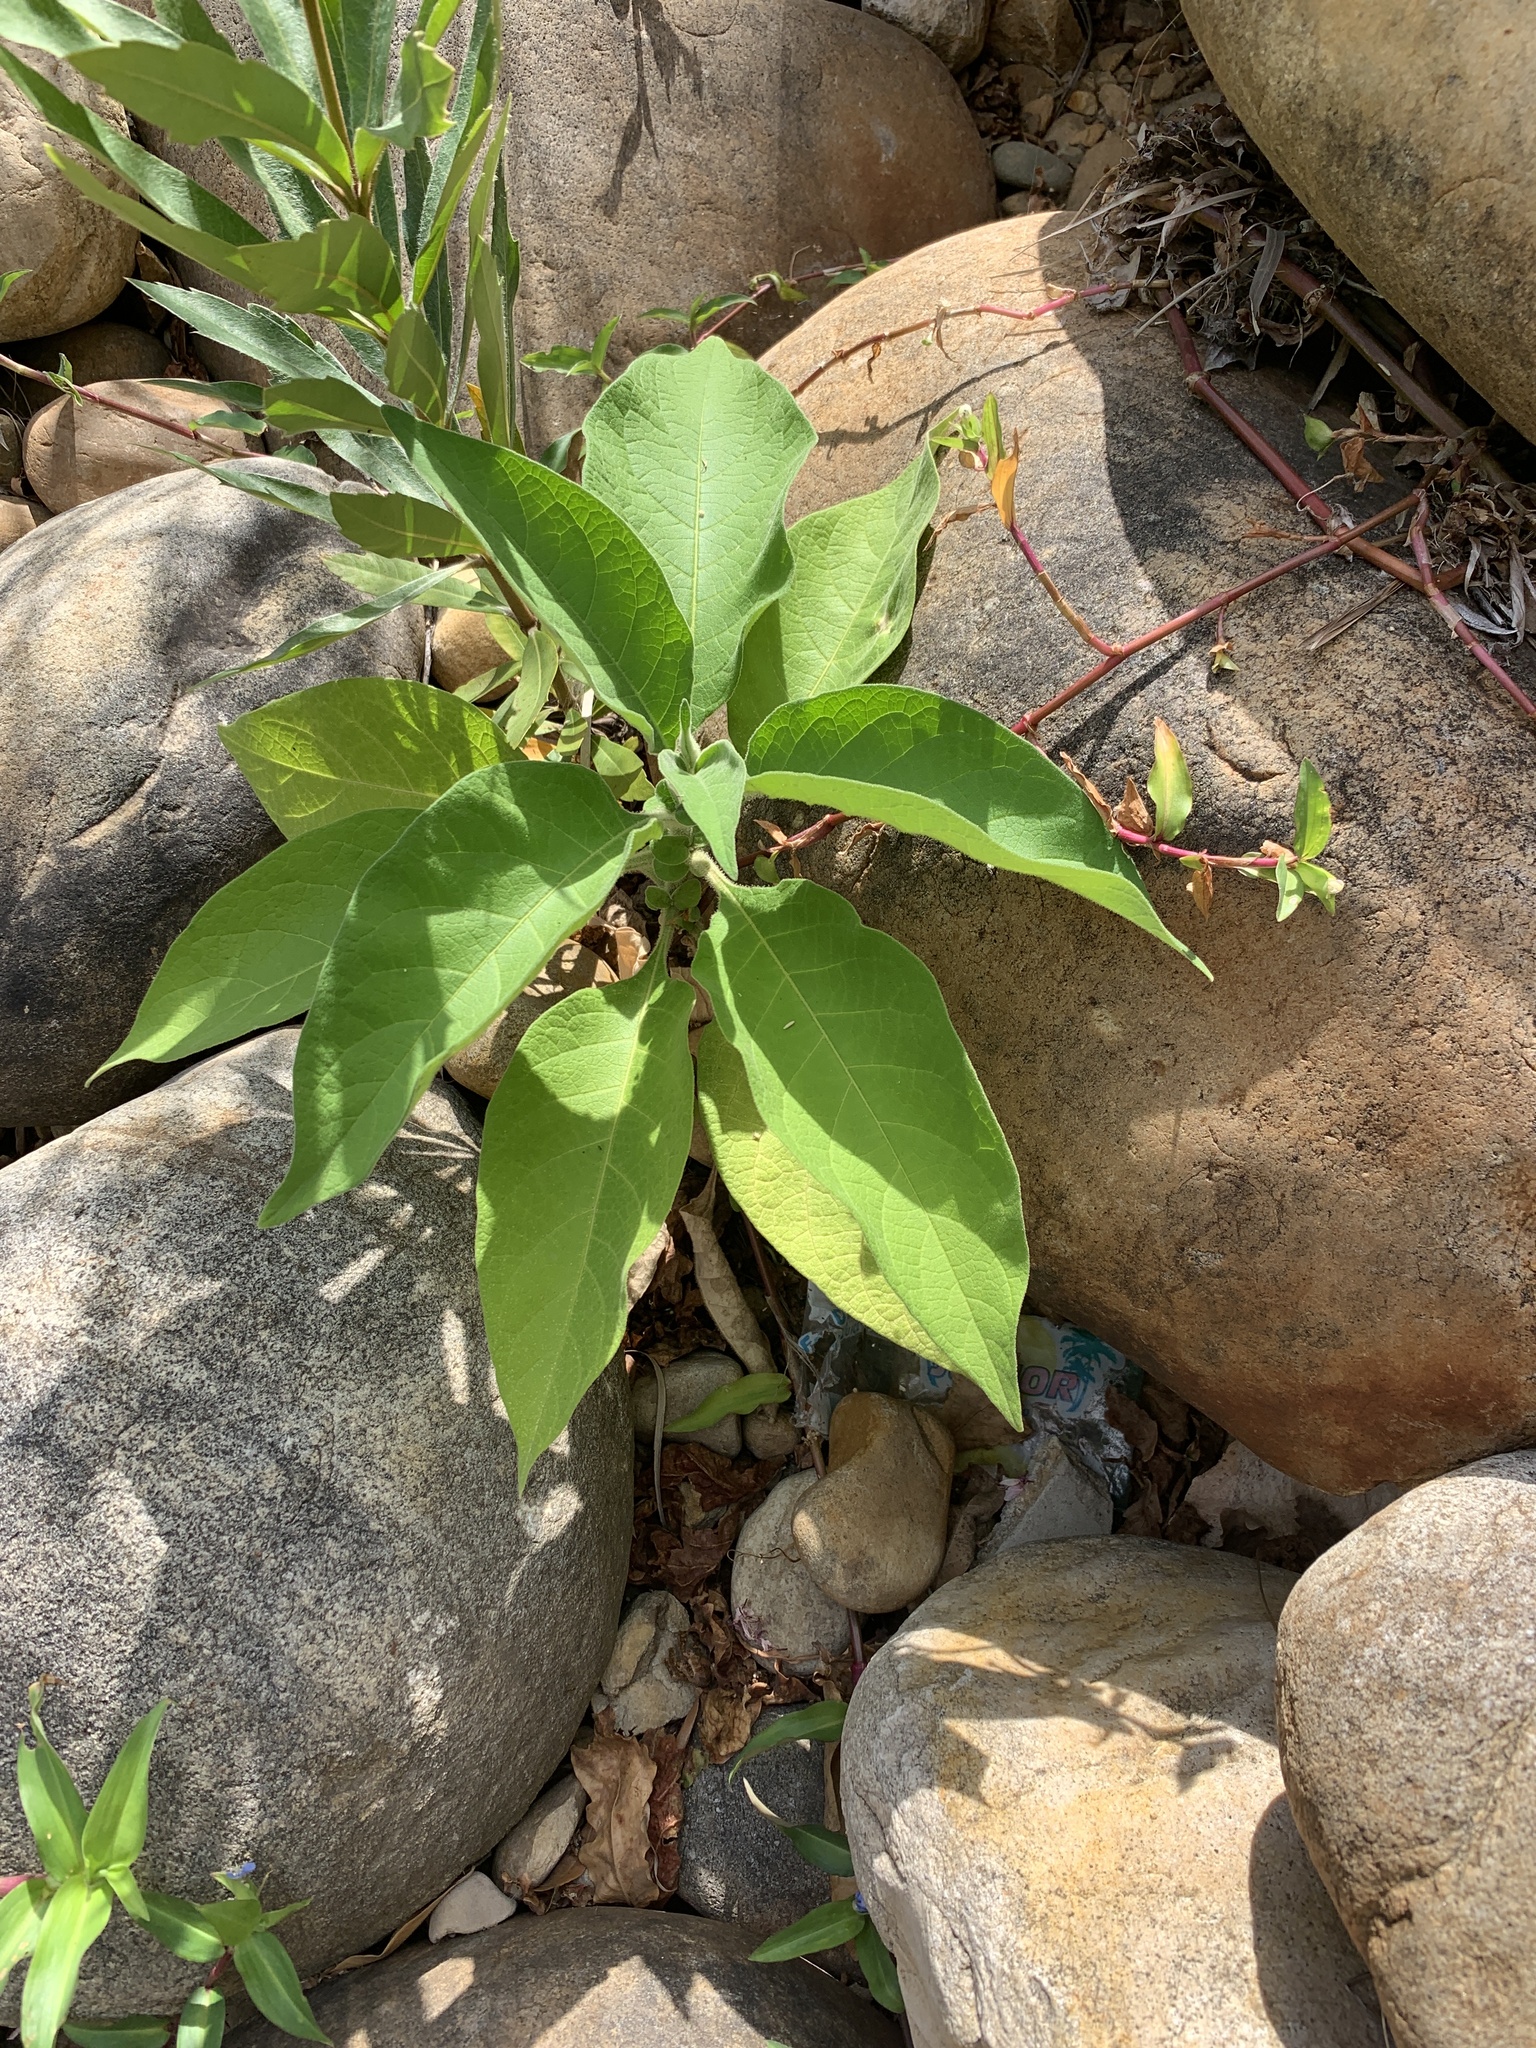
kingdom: Plantae
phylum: Tracheophyta
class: Magnoliopsida
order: Solanales
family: Solanaceae
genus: Solanum
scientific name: Solanum mauritianum
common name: Earleaf nightshade
